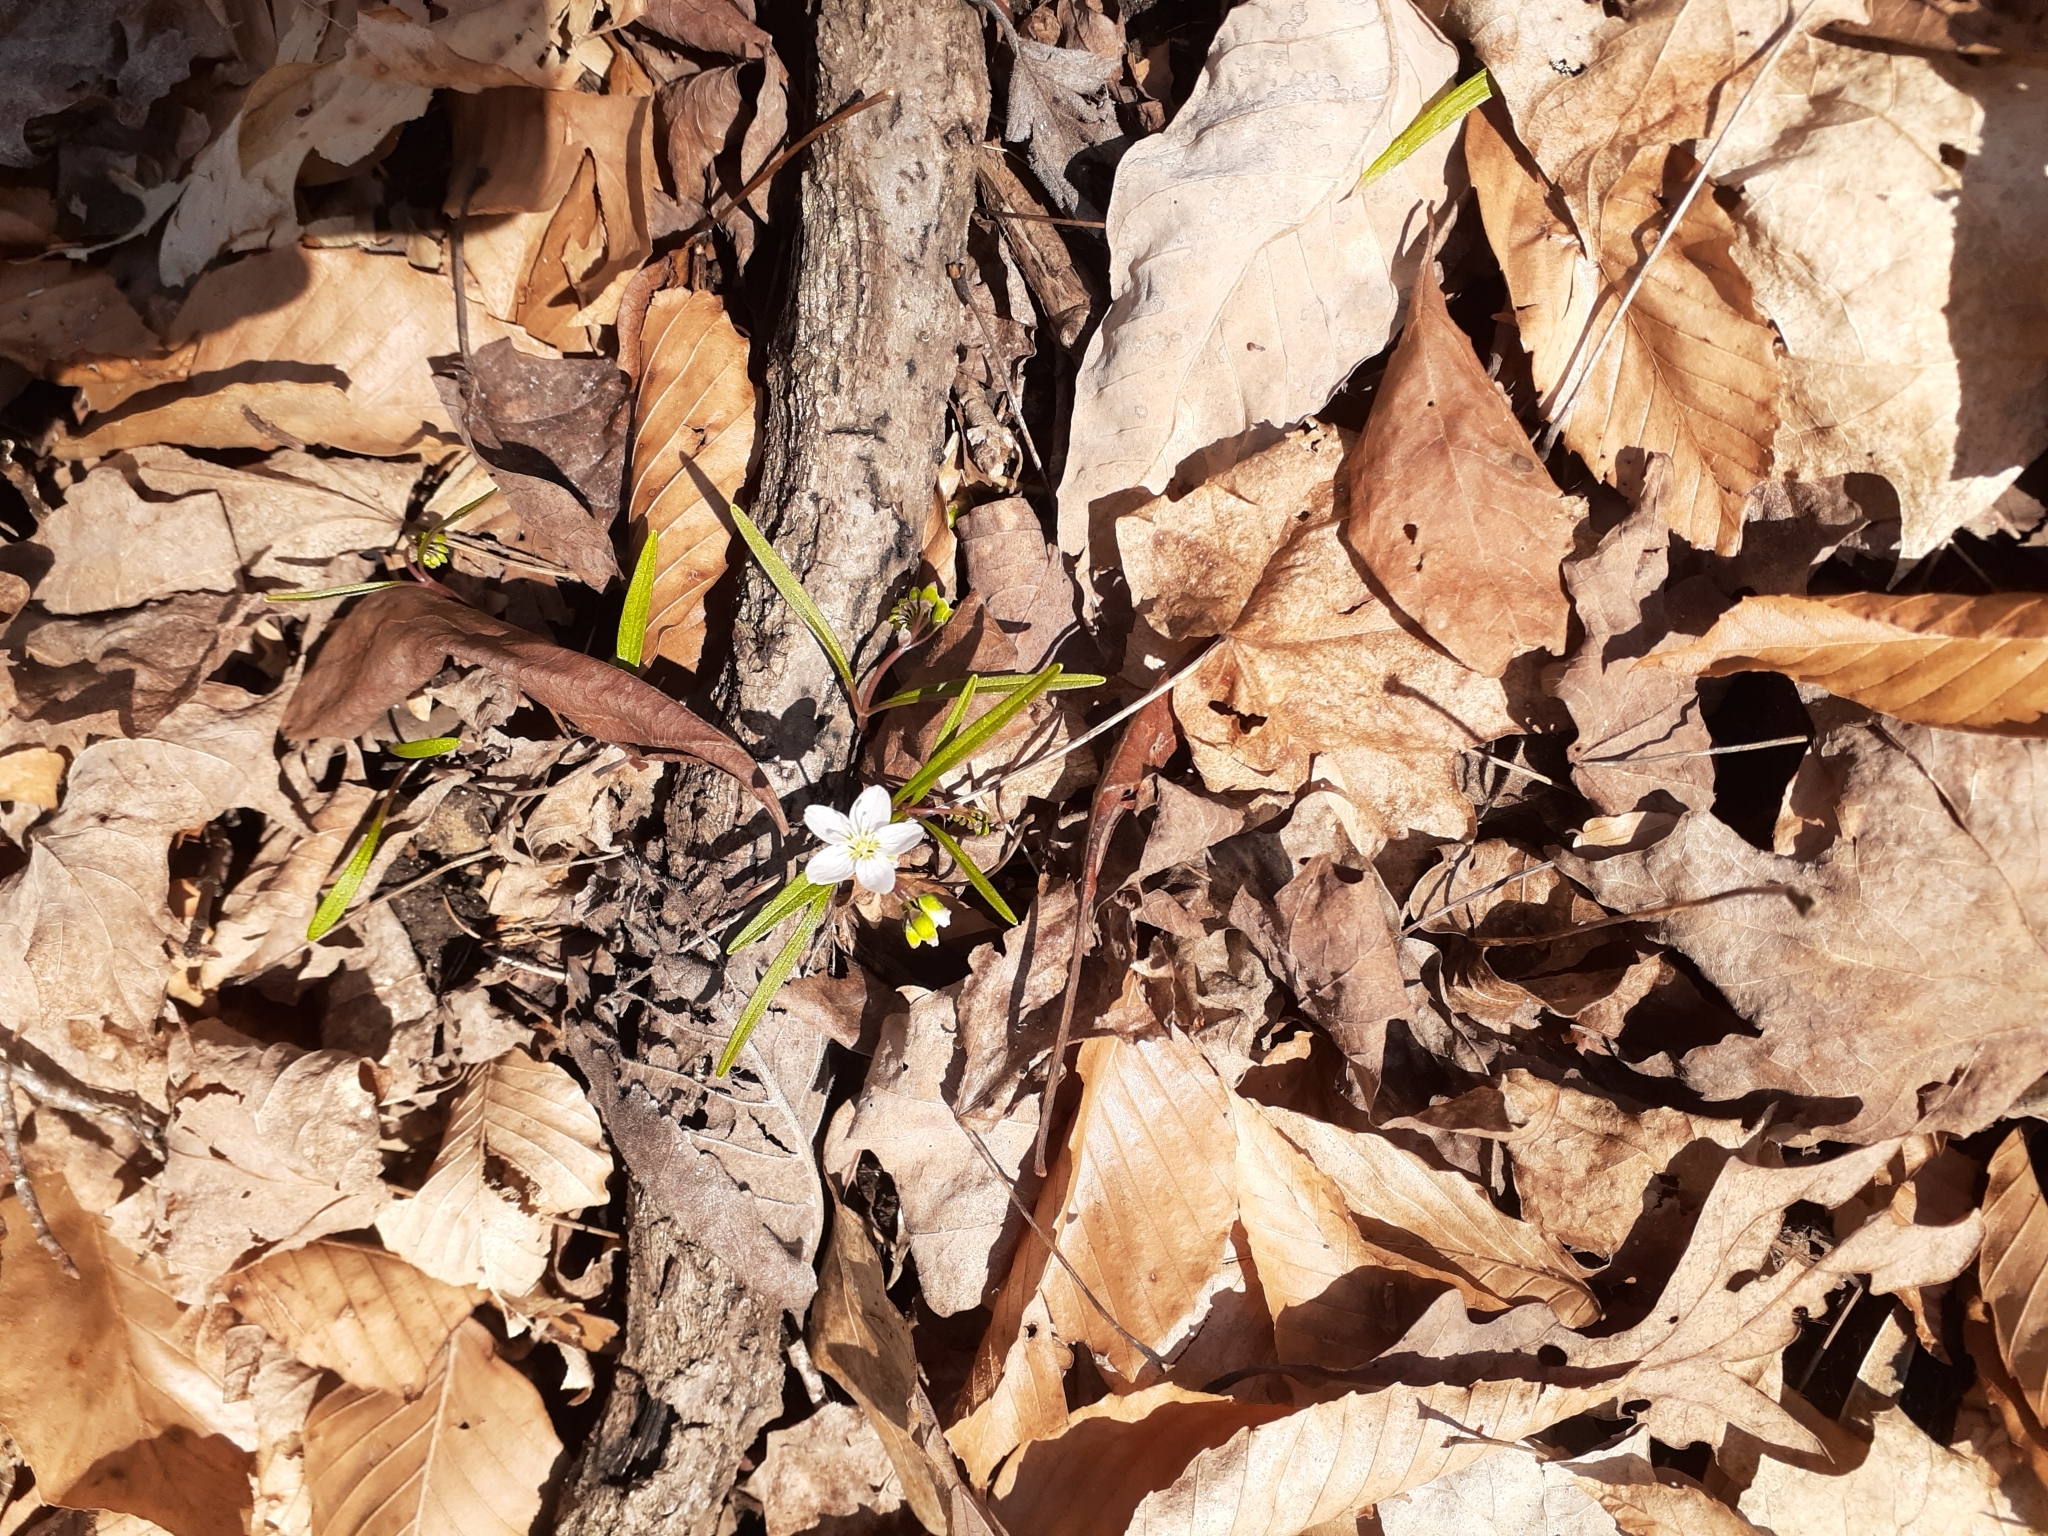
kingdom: Plantae
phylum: Tracheophyta
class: Magnoliopsida
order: Caryophyllales
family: Montiaceae
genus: Claytonia
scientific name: Claytonia virginica
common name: Virginia springbeauty
